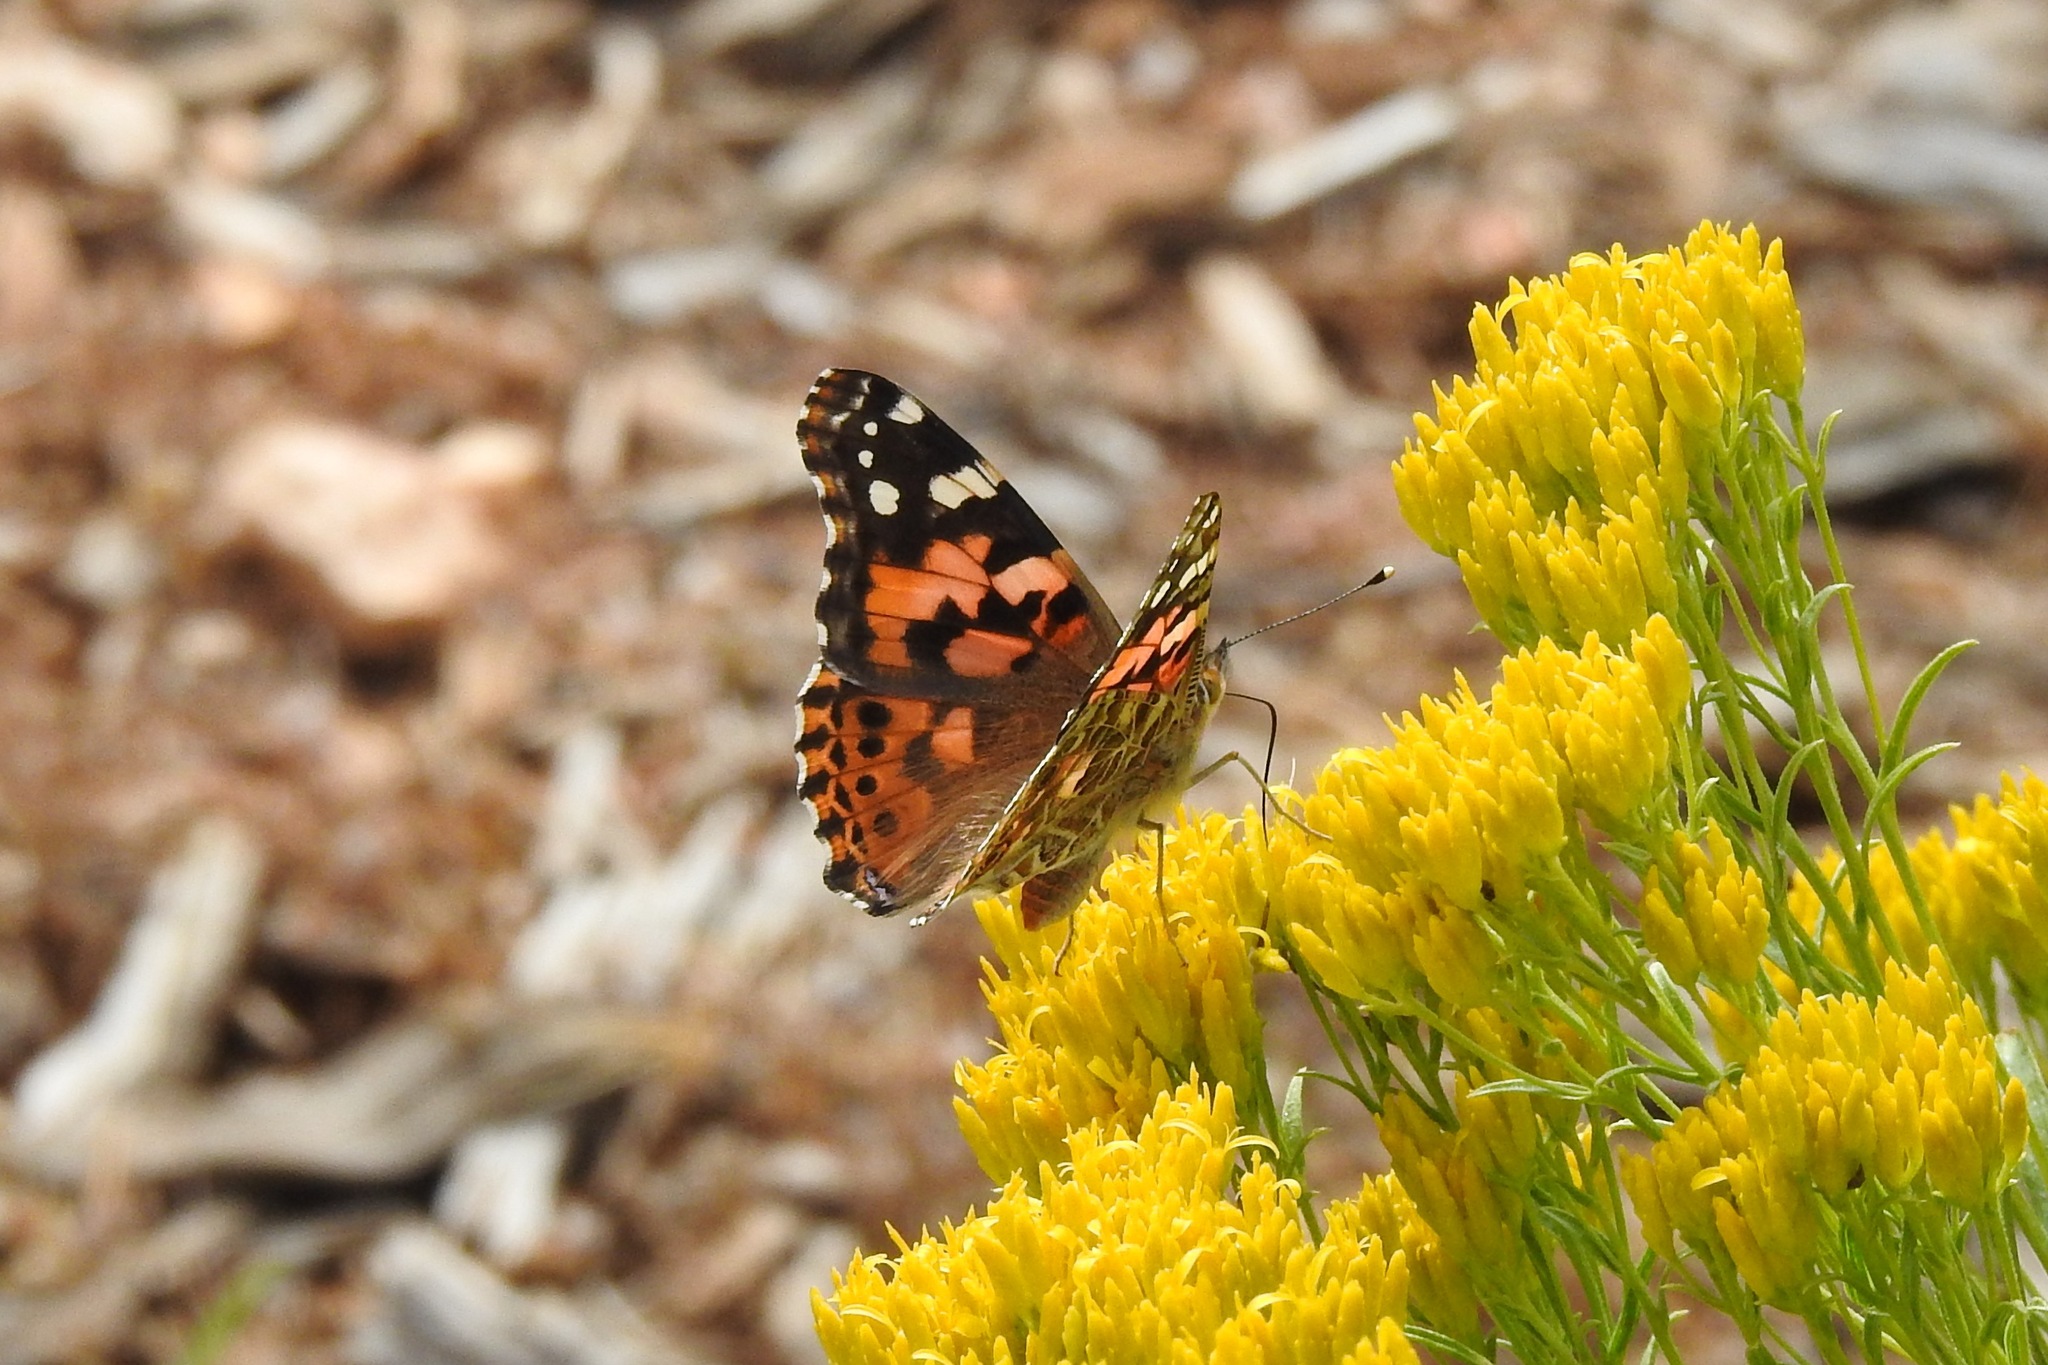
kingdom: Animalia
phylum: Arthropoda
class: Insecta
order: Lepidoptera
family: Nymphalidae
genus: Vanessa
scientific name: Vanessa cardui
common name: Painted lady
